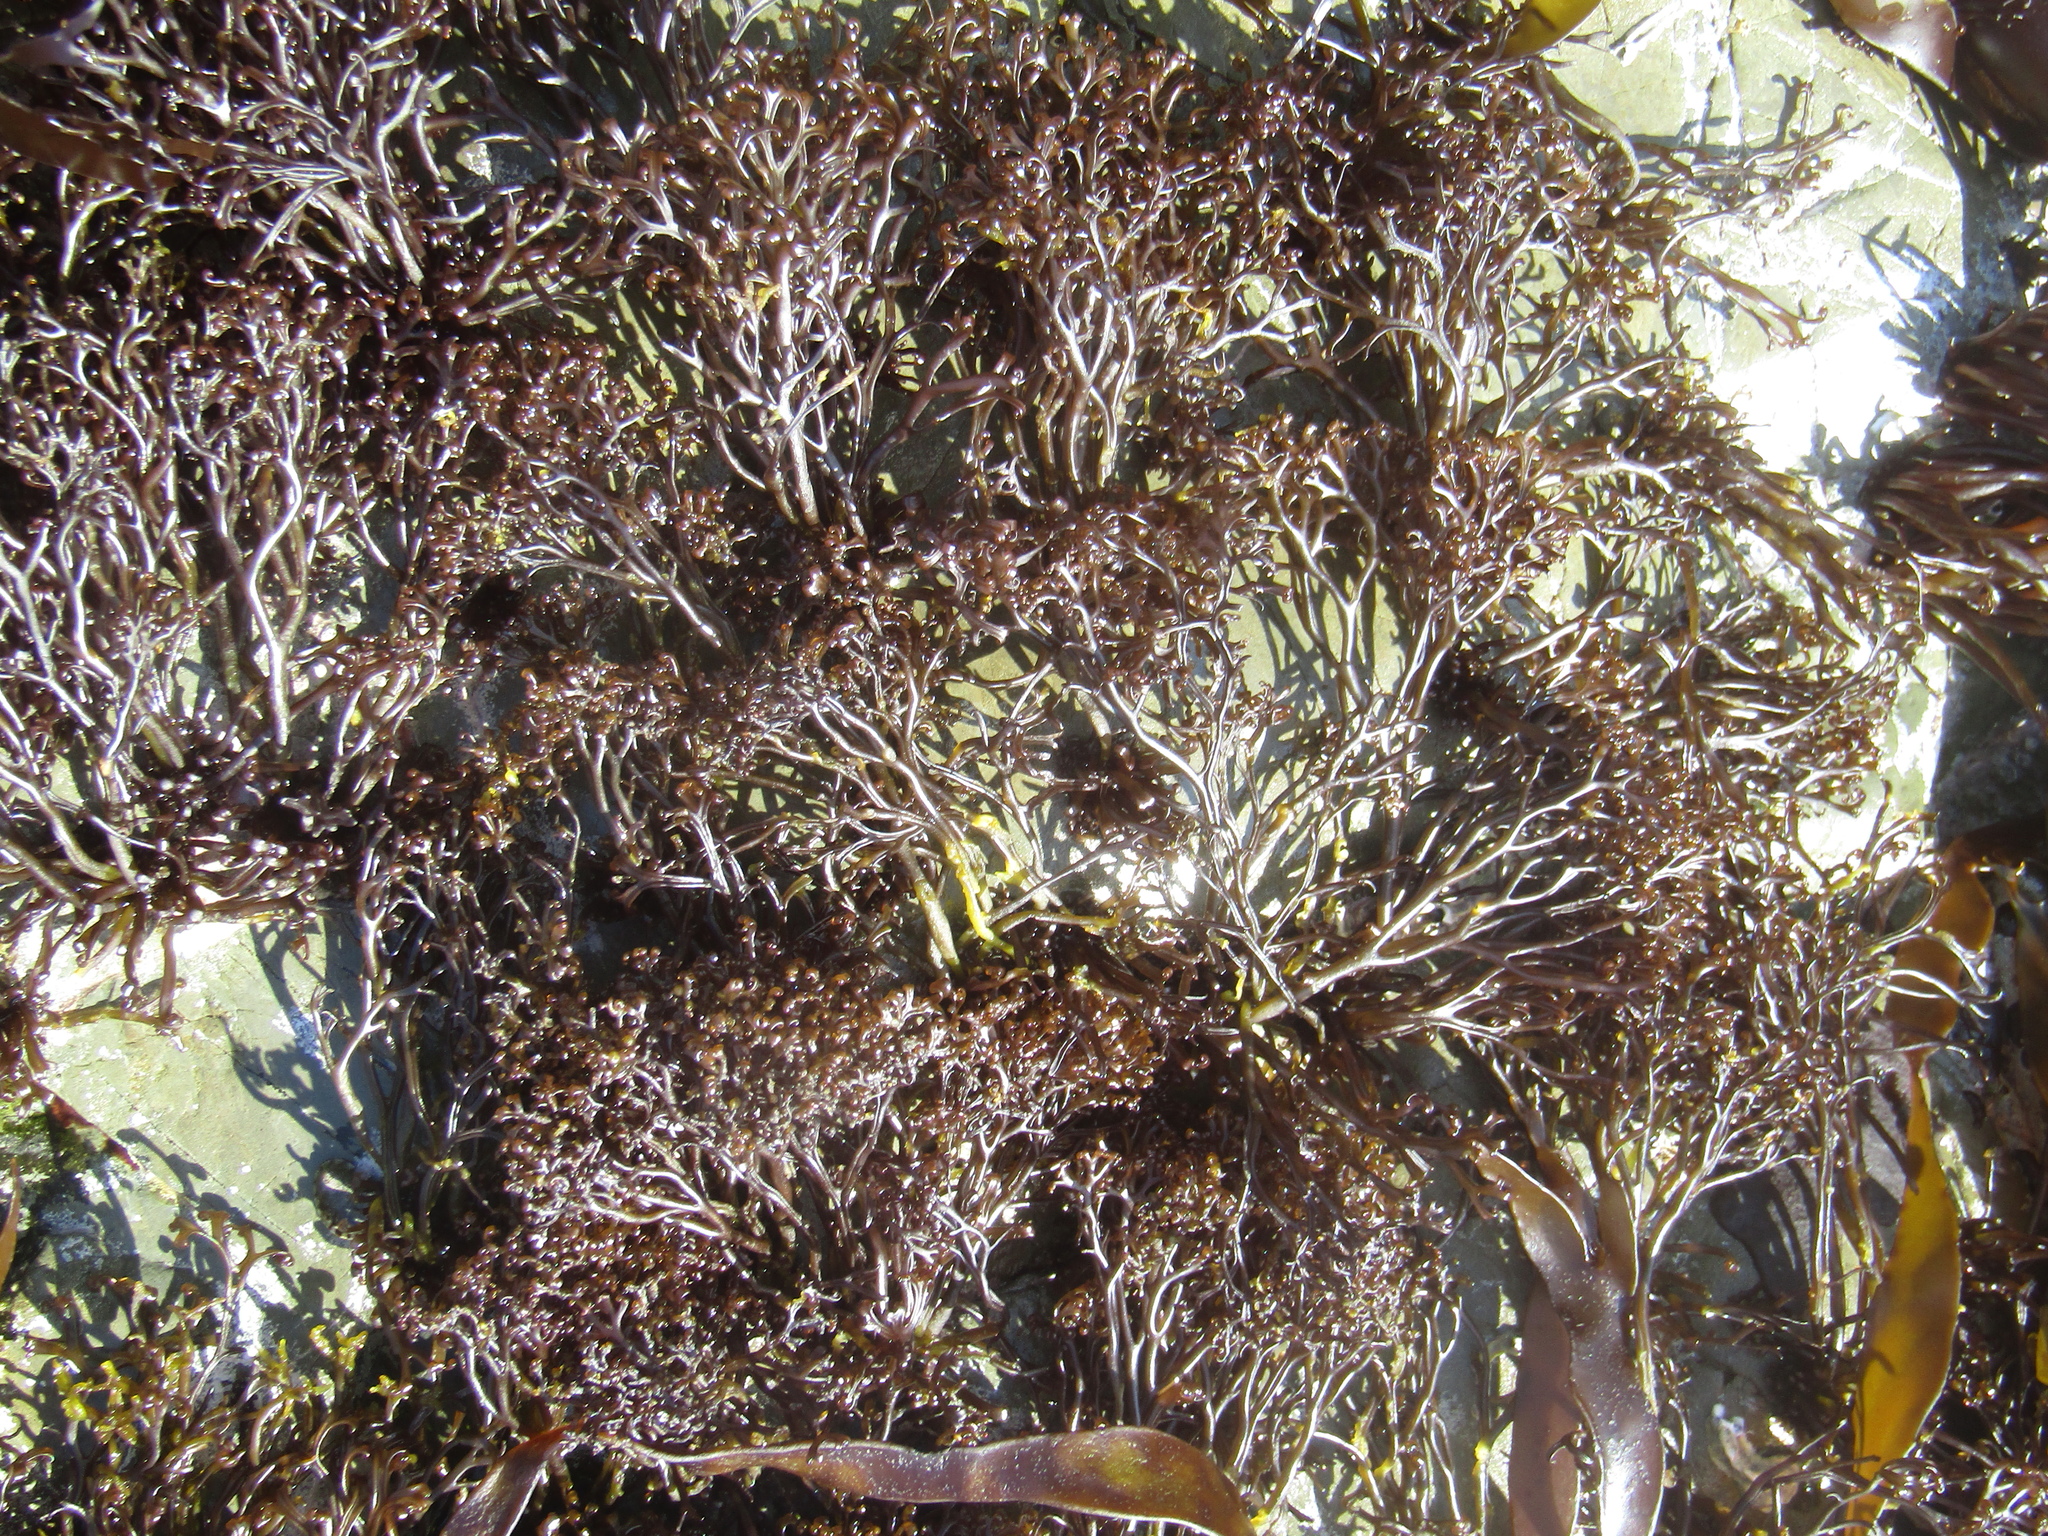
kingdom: Plantae
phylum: Rhodophyta
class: Florideophyceae
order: Gigartinales
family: Gigartinaceae
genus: Psilophycus
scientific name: Psilophycus alveatus
